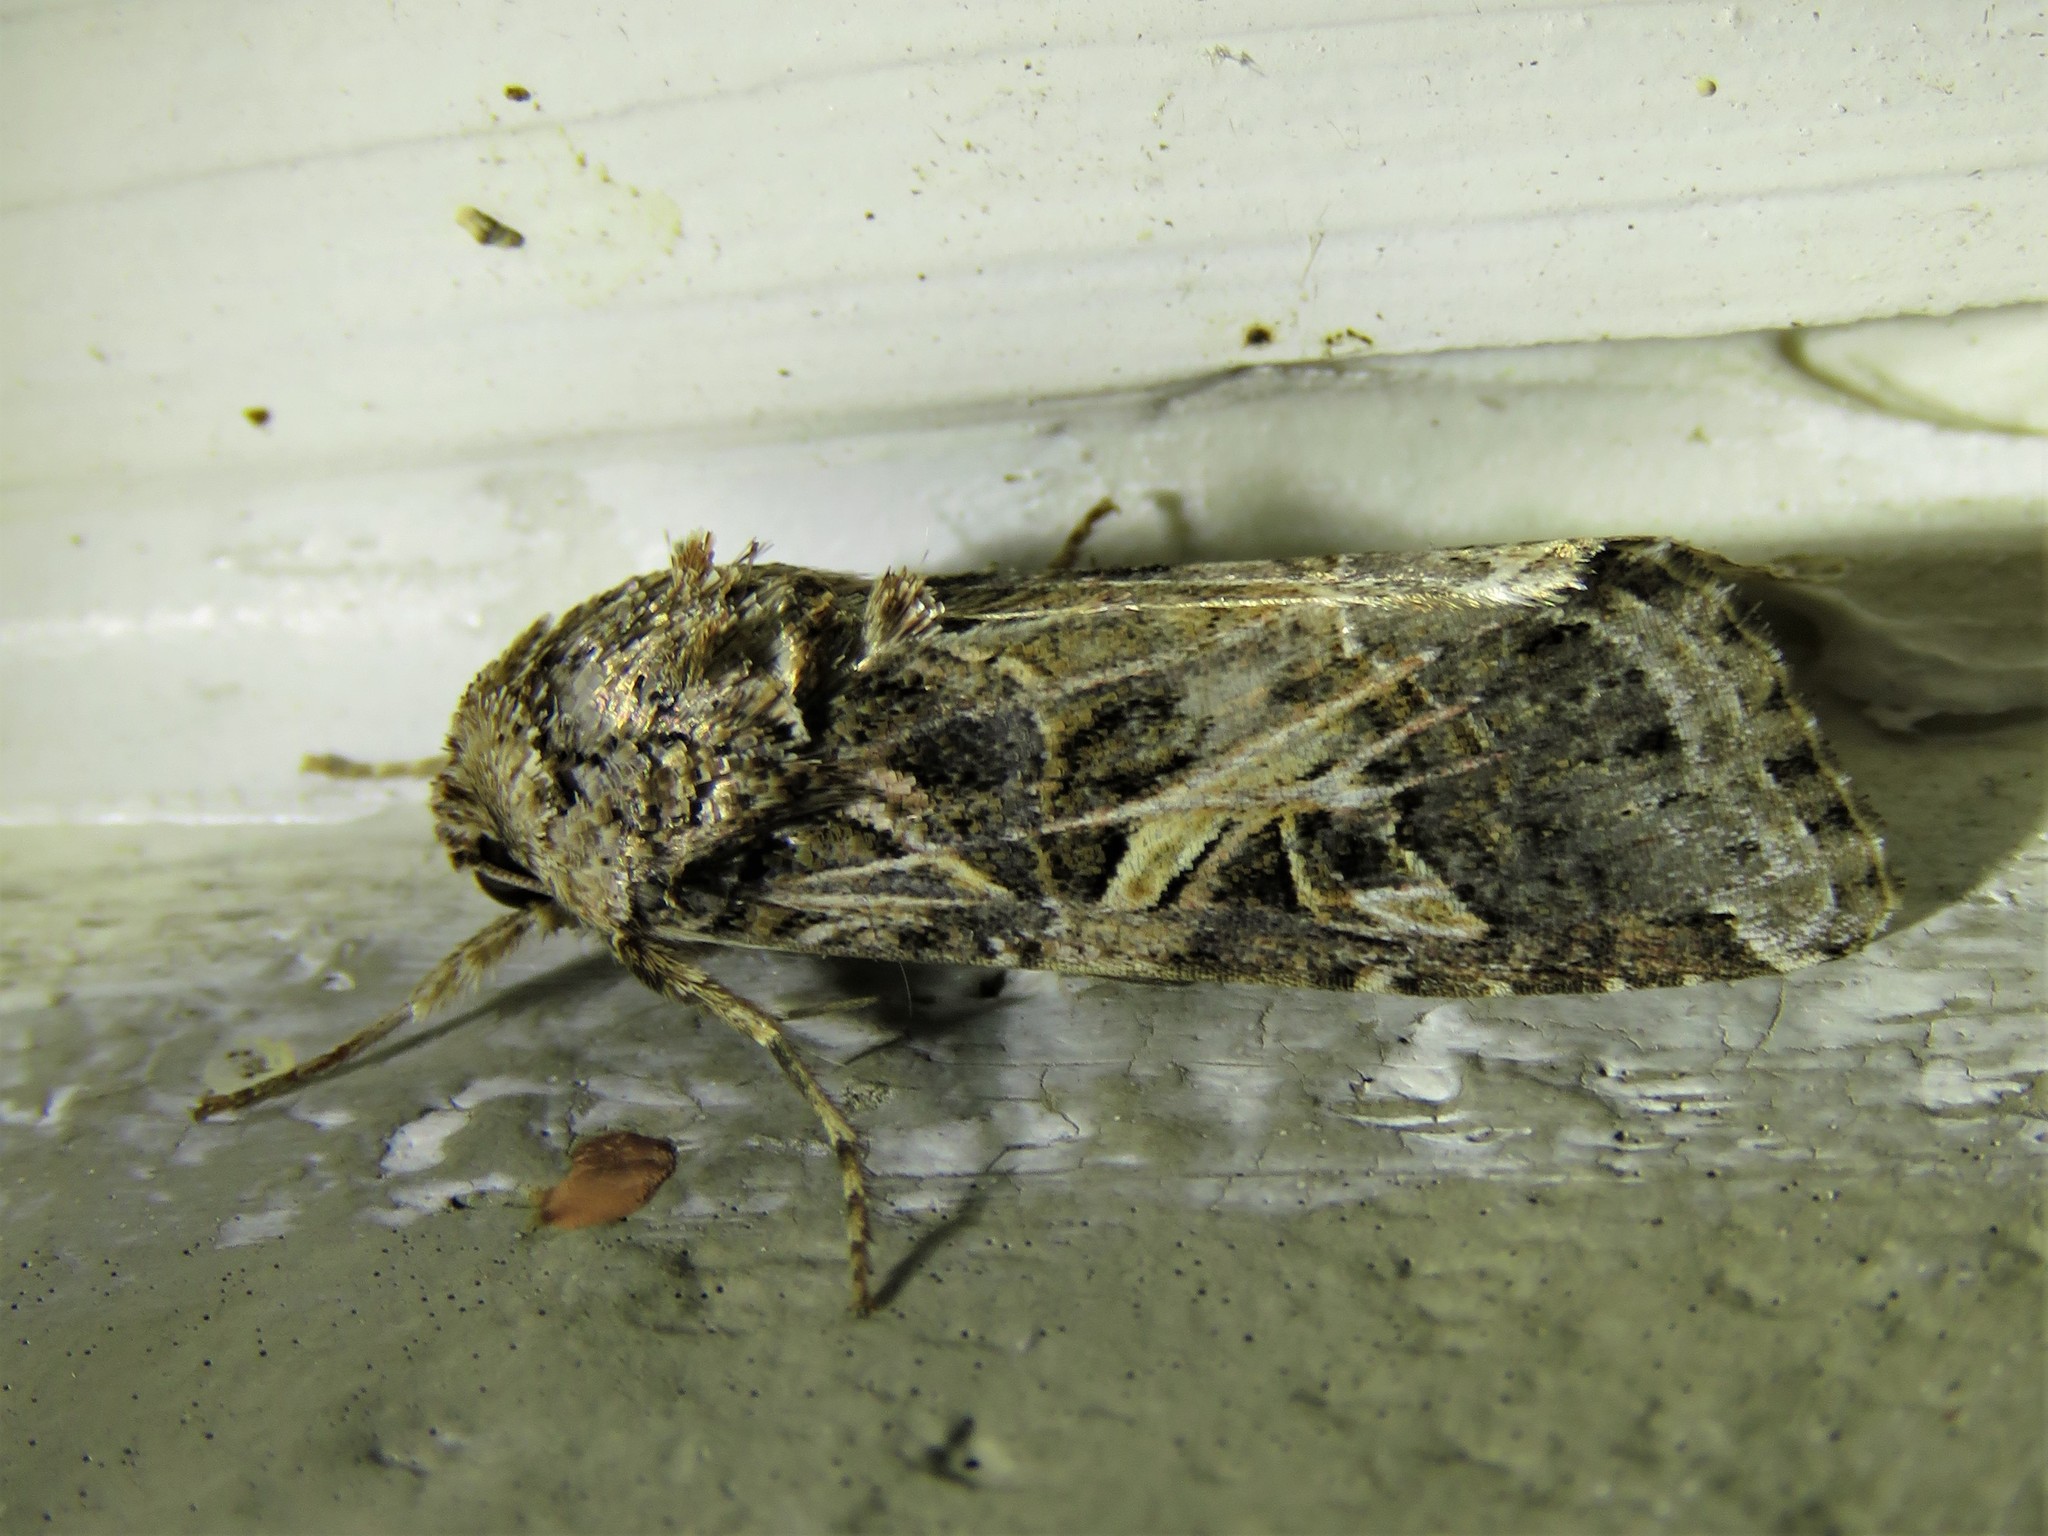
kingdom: Animalia
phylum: Arthropoda
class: Insecta
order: Lepidoptera
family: Noctuidae
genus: Spodoptera
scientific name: Spodoptera ornithogalli
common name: Yellow-striped armyworm
